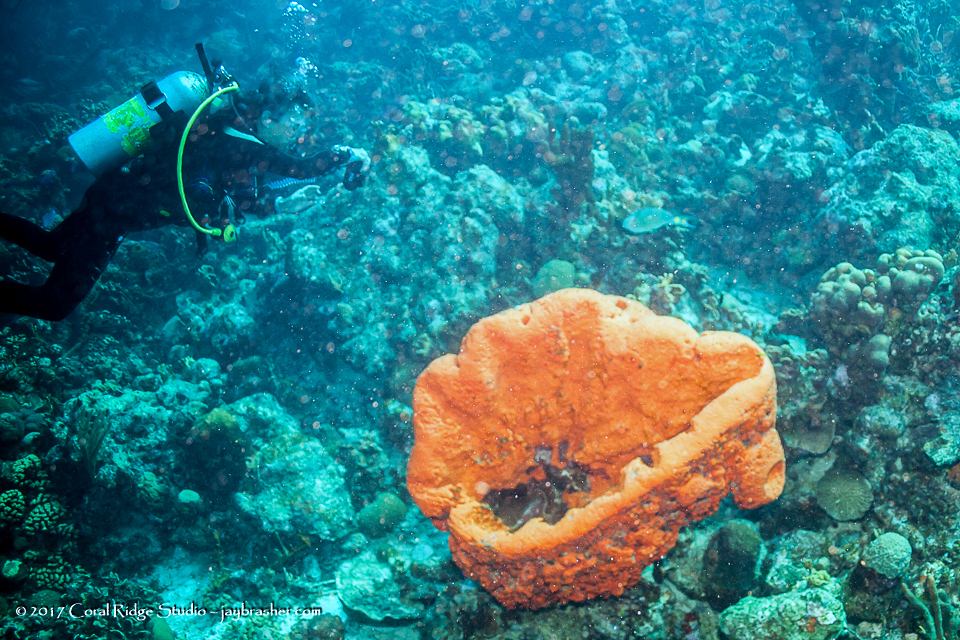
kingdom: Animalia
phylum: Porifera
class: Demospongiae
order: Agelasida
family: Agelasidae
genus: Agelas
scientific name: Agelas clathrodes
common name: Orange elephant ear sponge
